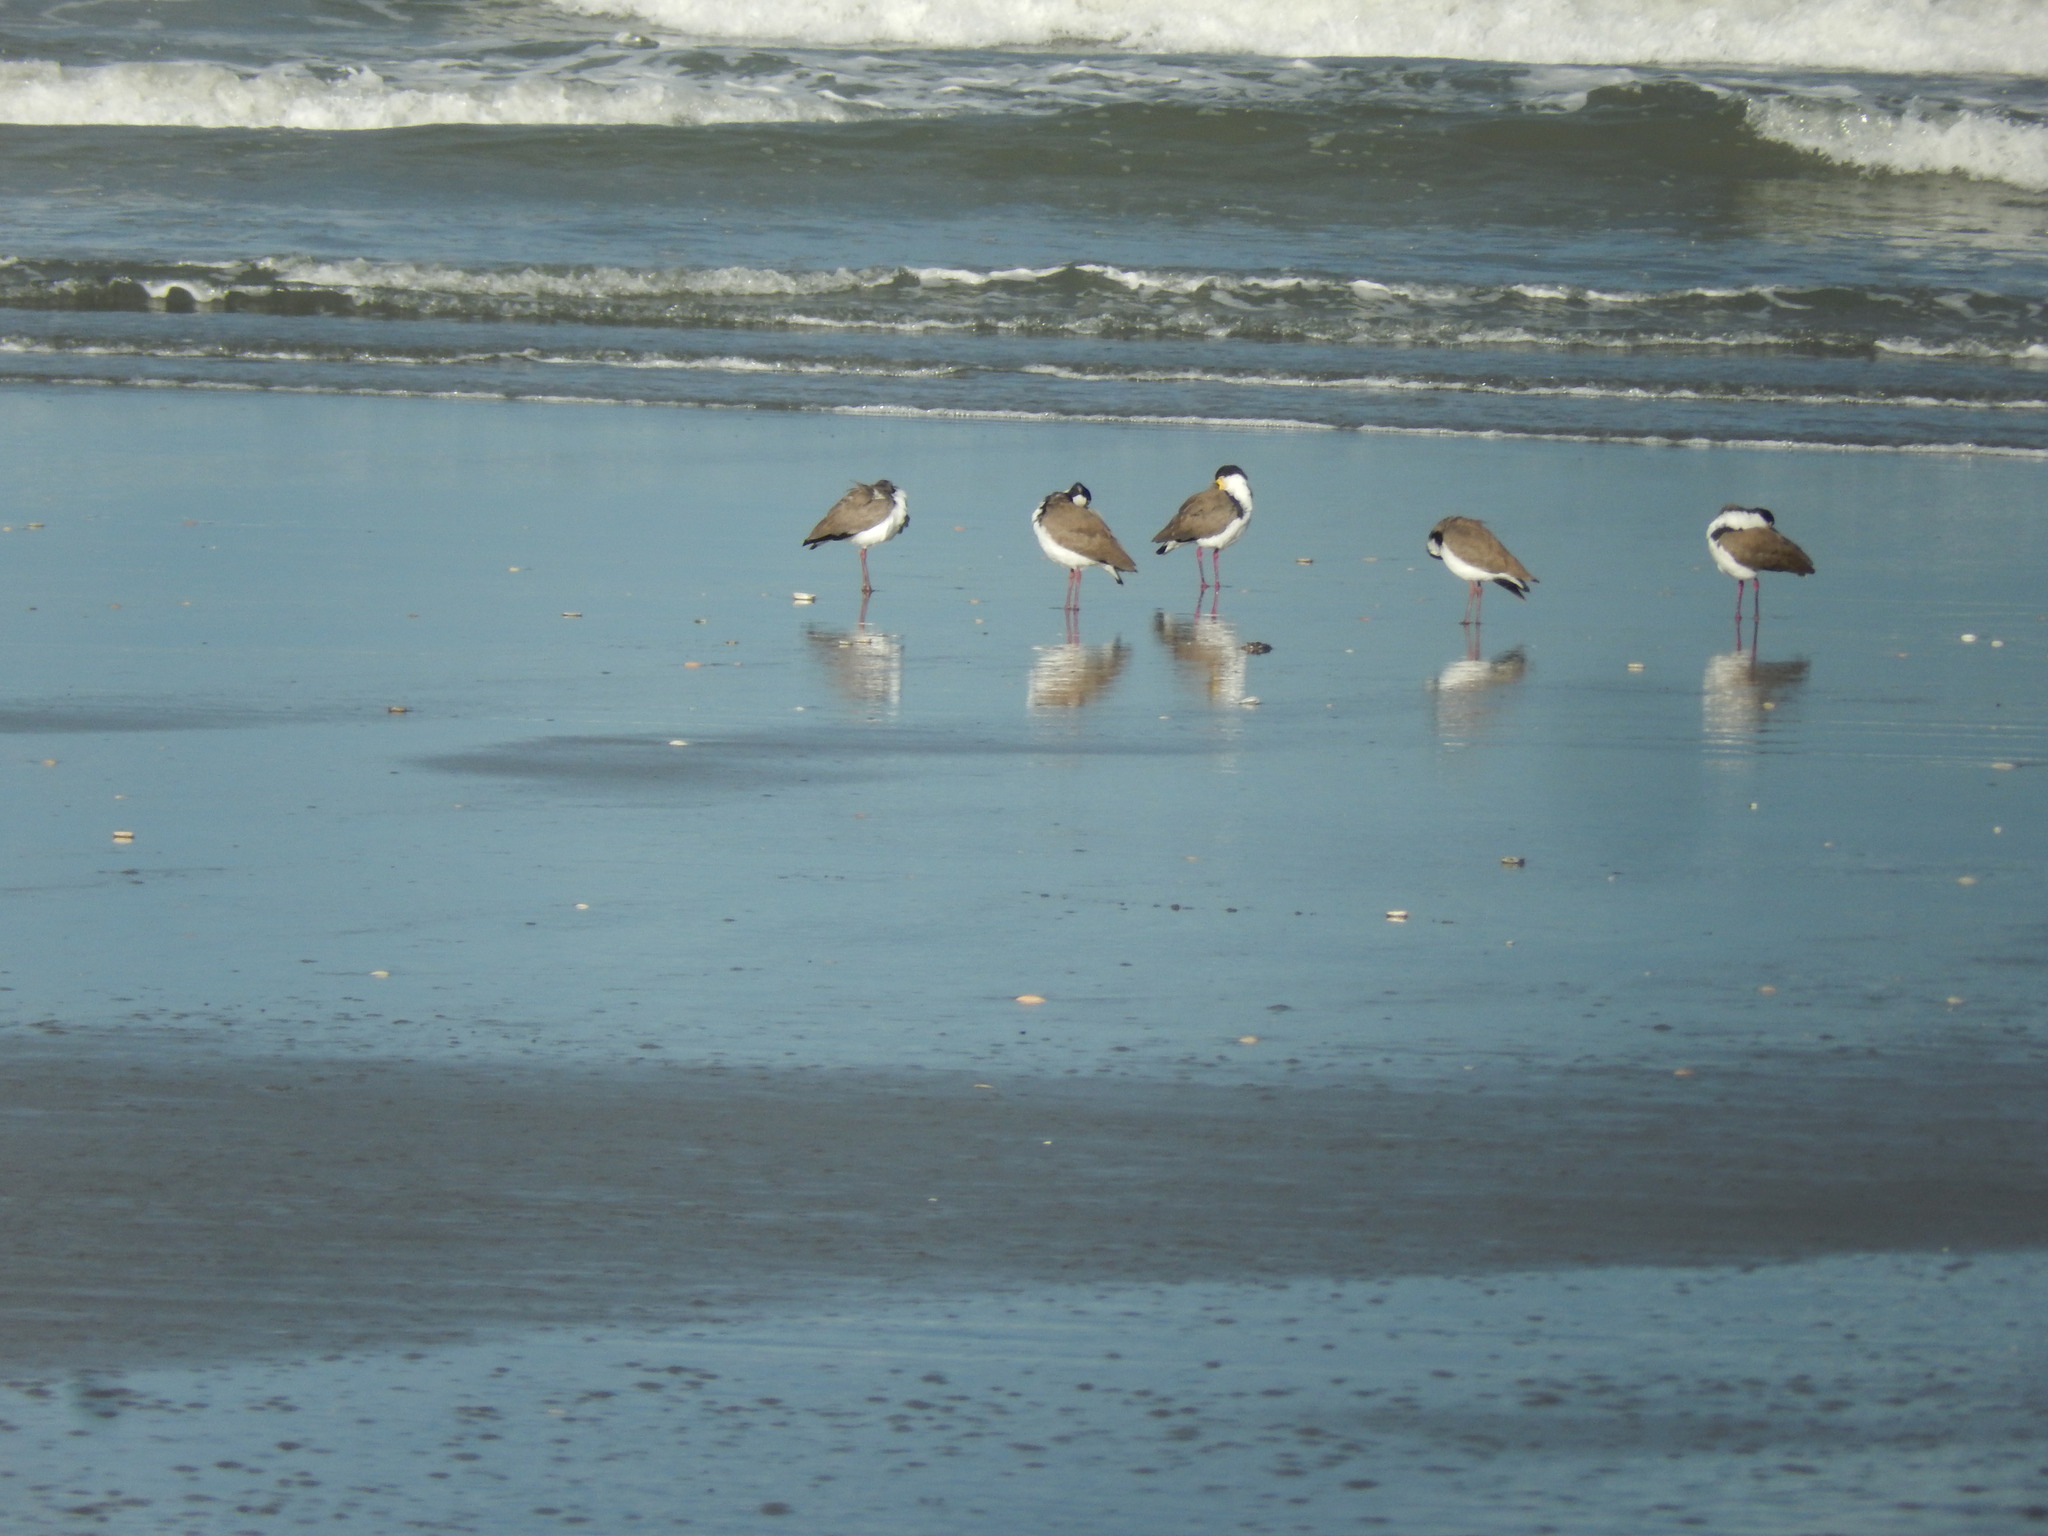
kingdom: Animalia
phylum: Chordata
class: Aves
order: Charadriiformes
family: Charadriidae
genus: Vanellus
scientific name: Vanellus miles
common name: Masked lapwing
